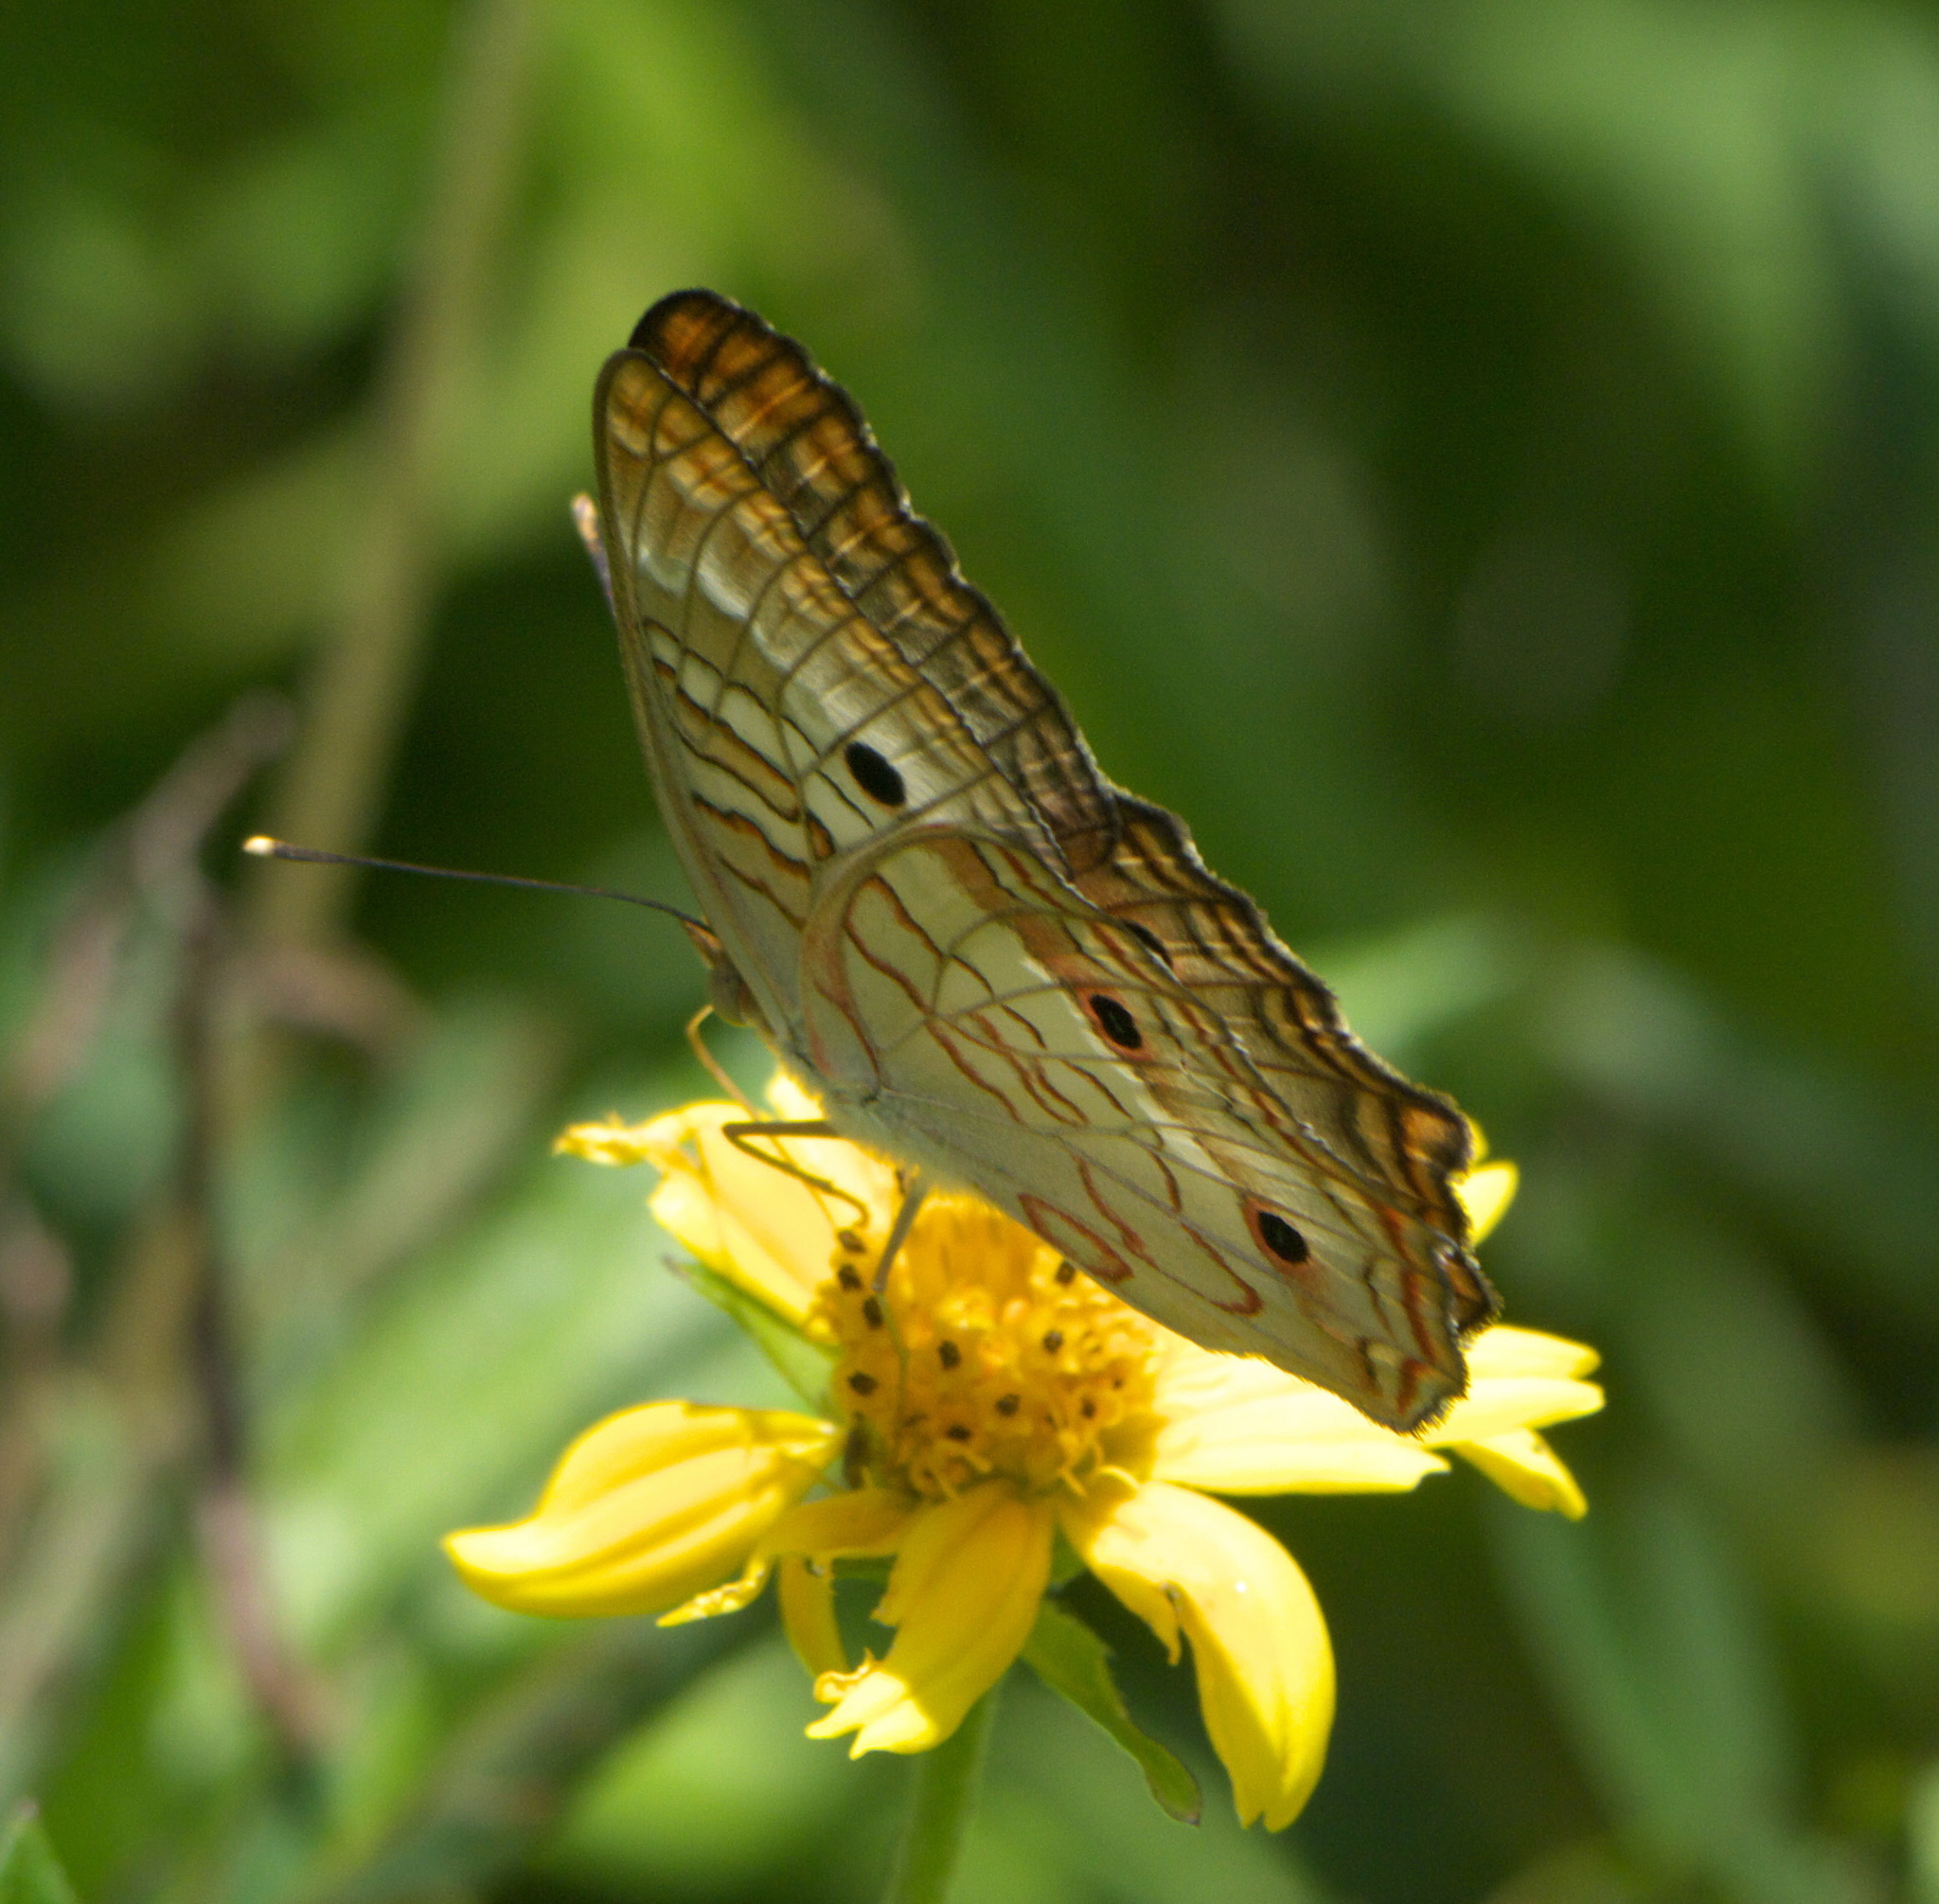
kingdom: Animalia
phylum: Arthropoda
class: Insecta
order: Lepidoptera
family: Nymphalidae
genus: Anartia
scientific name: Anartia jatrophae
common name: White peacock
